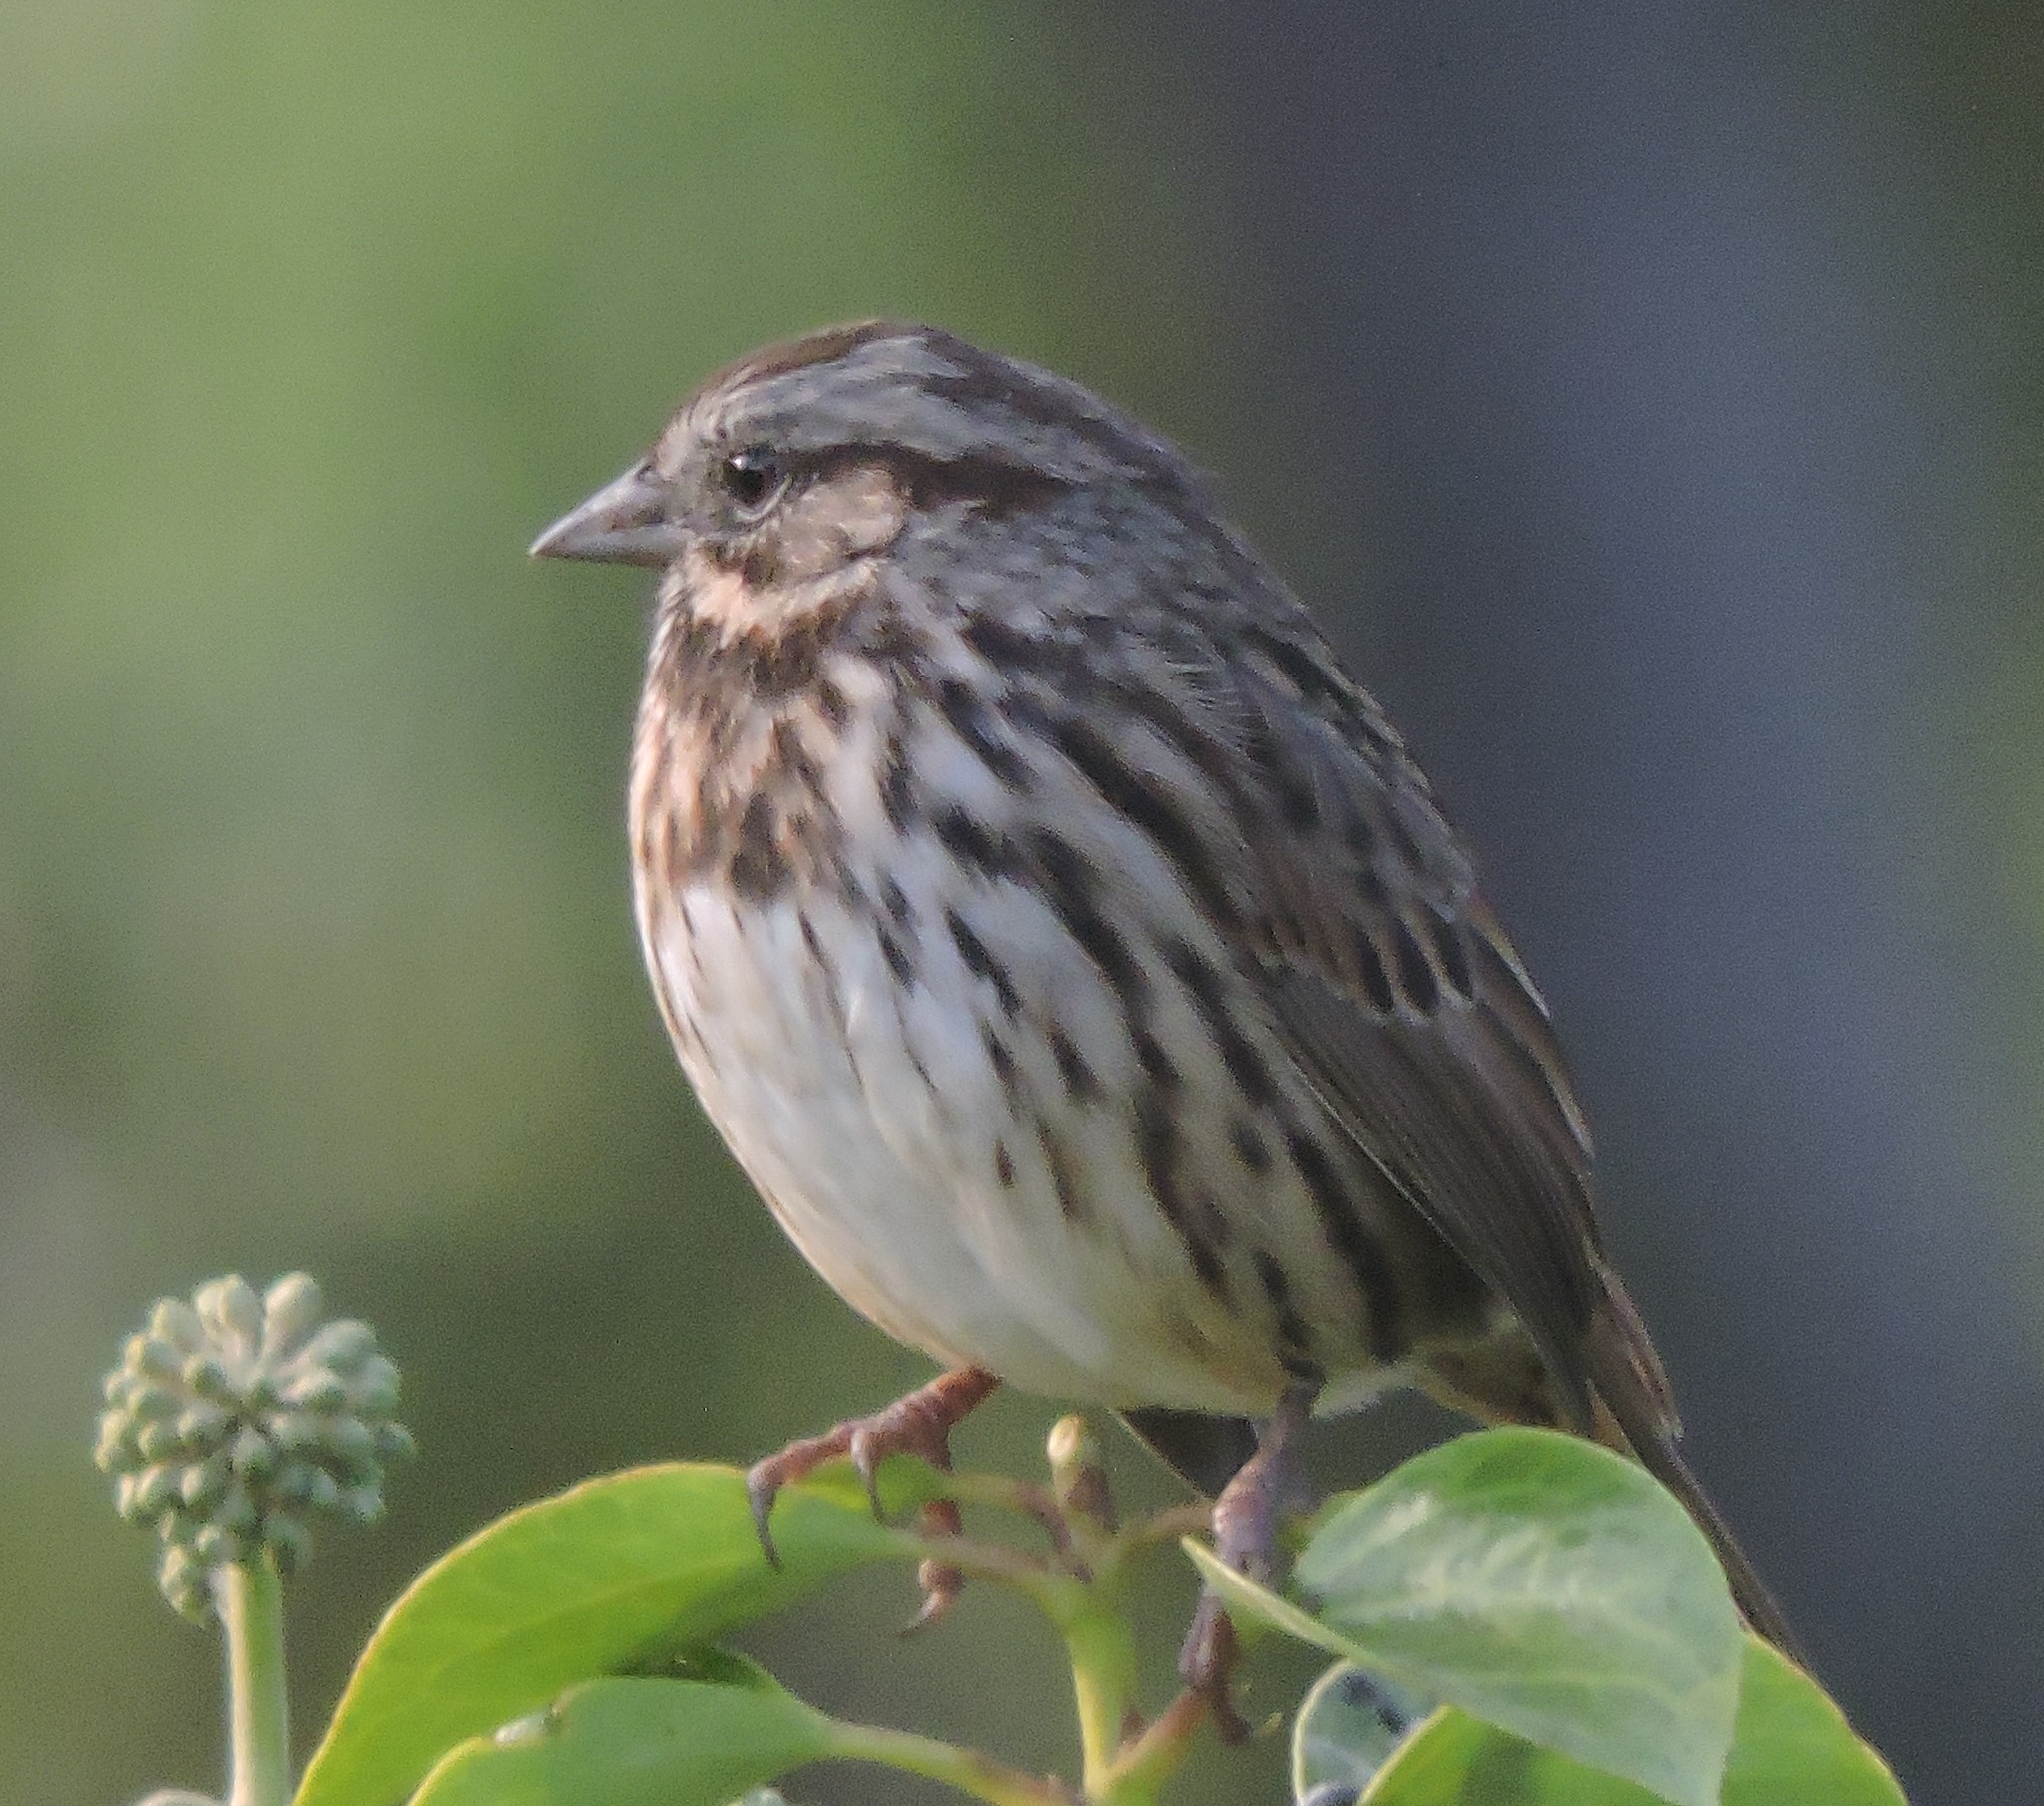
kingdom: Animalia
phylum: Chordata
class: Aves
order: Passeriformes
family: Passerellidae
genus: Melospiza
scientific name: Melospiza melodia
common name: Song sparrow
